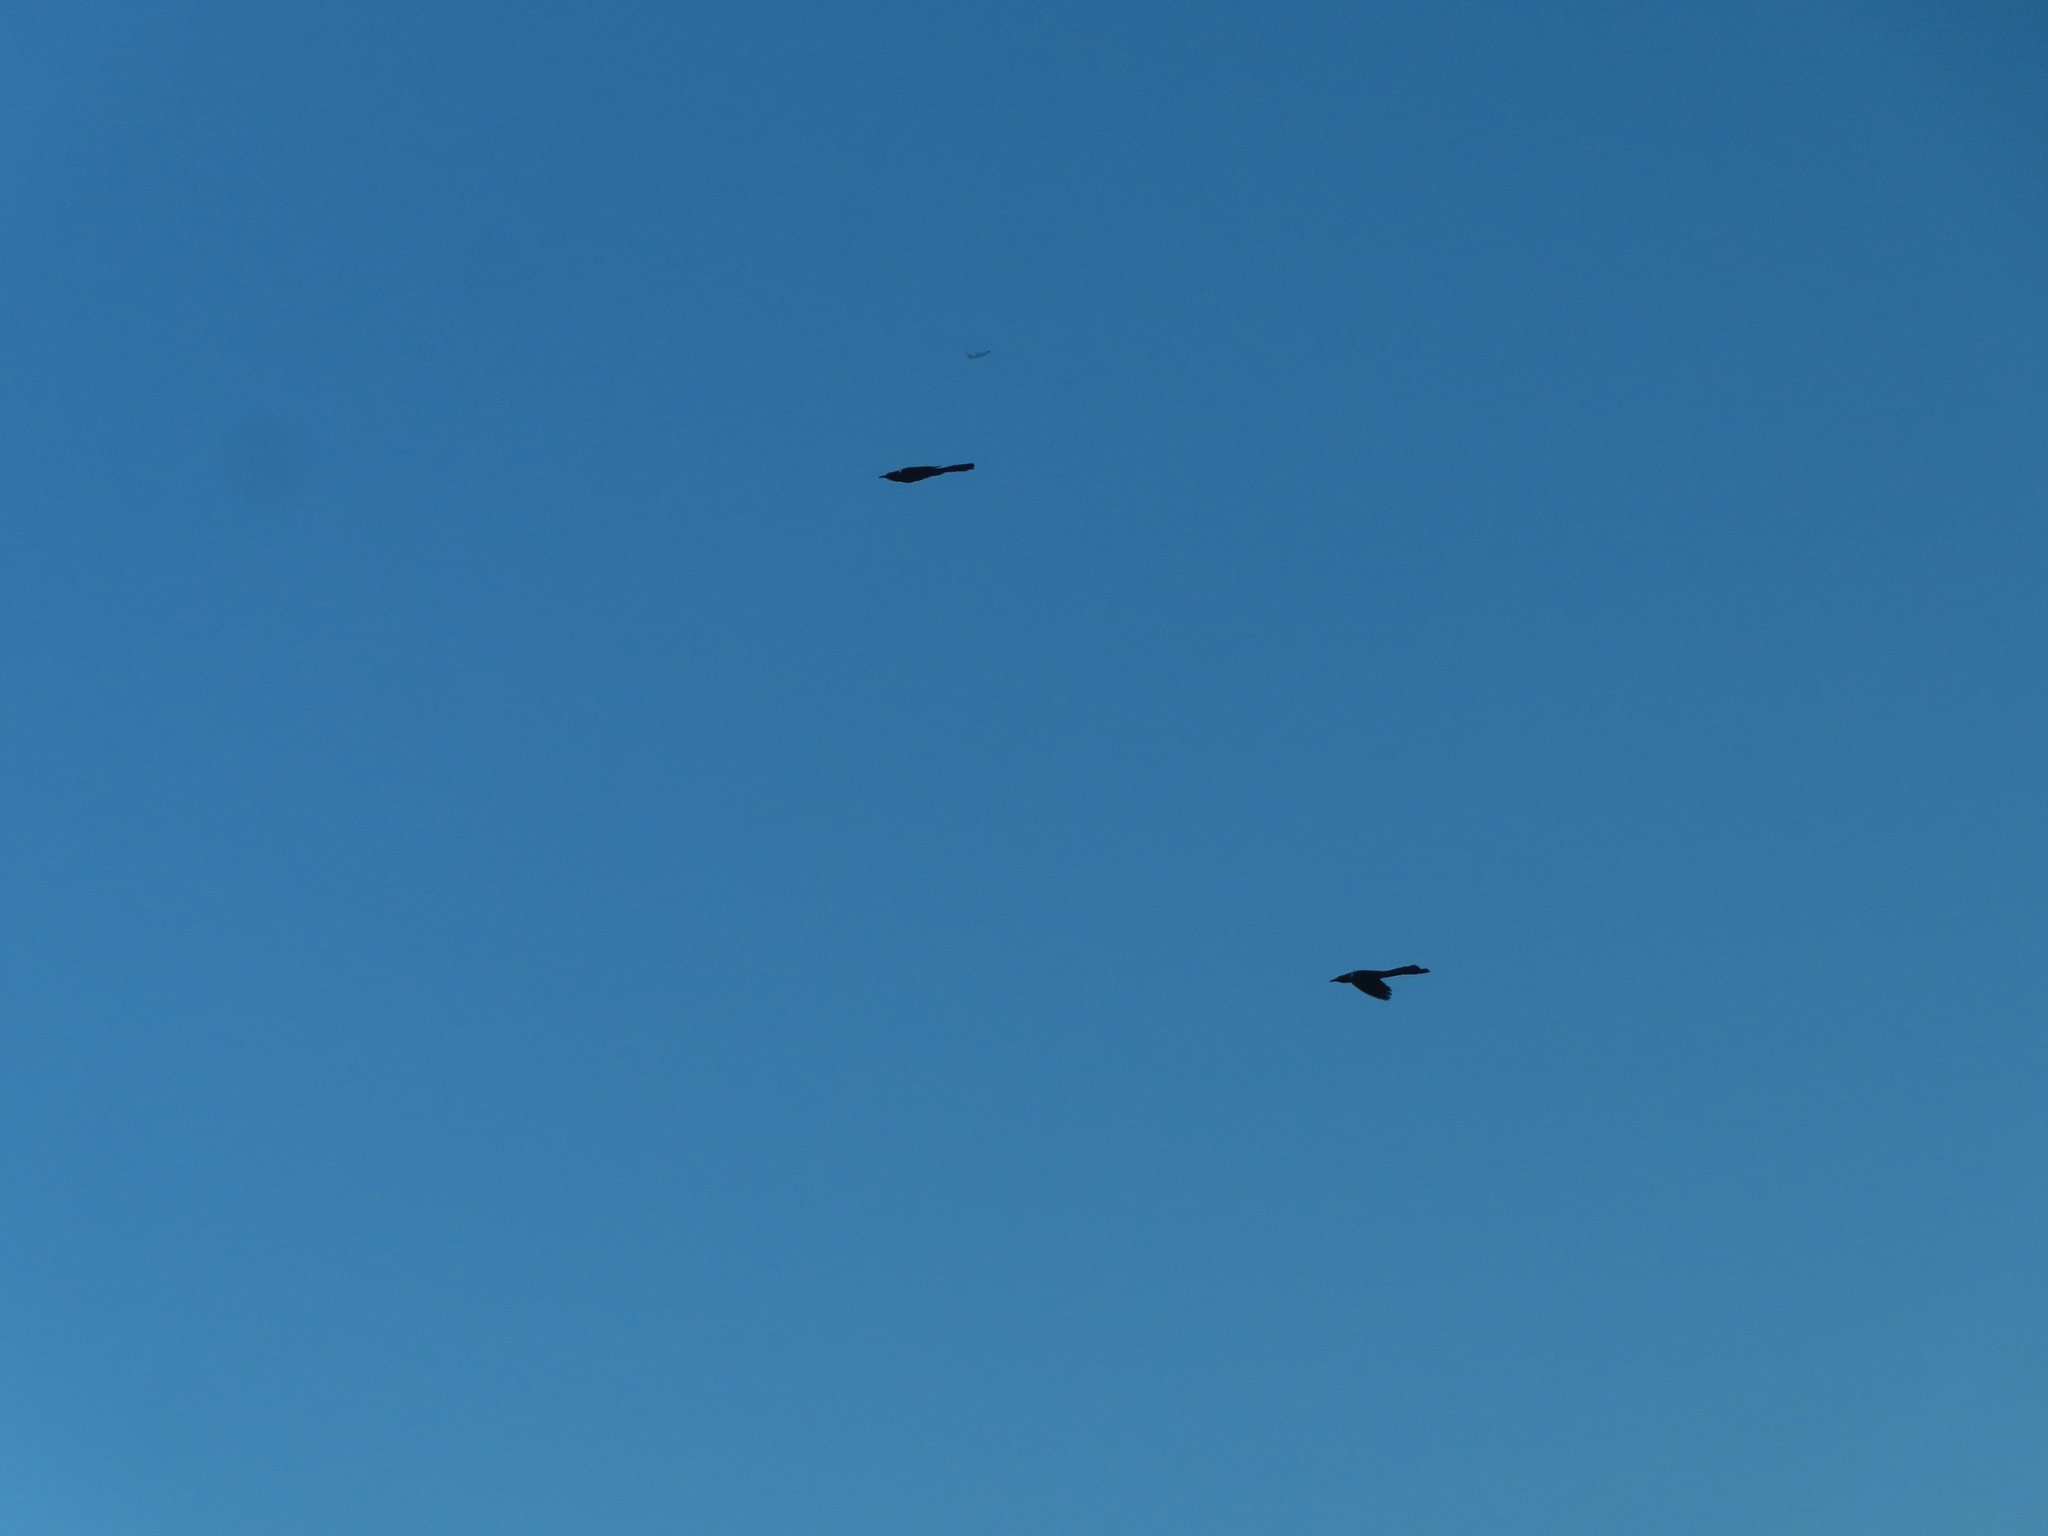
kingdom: Animalia
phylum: Chordata
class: Aves
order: Passeriformes
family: Icteridae
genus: Quiscalus
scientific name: Quiscalus mexicanus
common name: Great-tailed grackle
